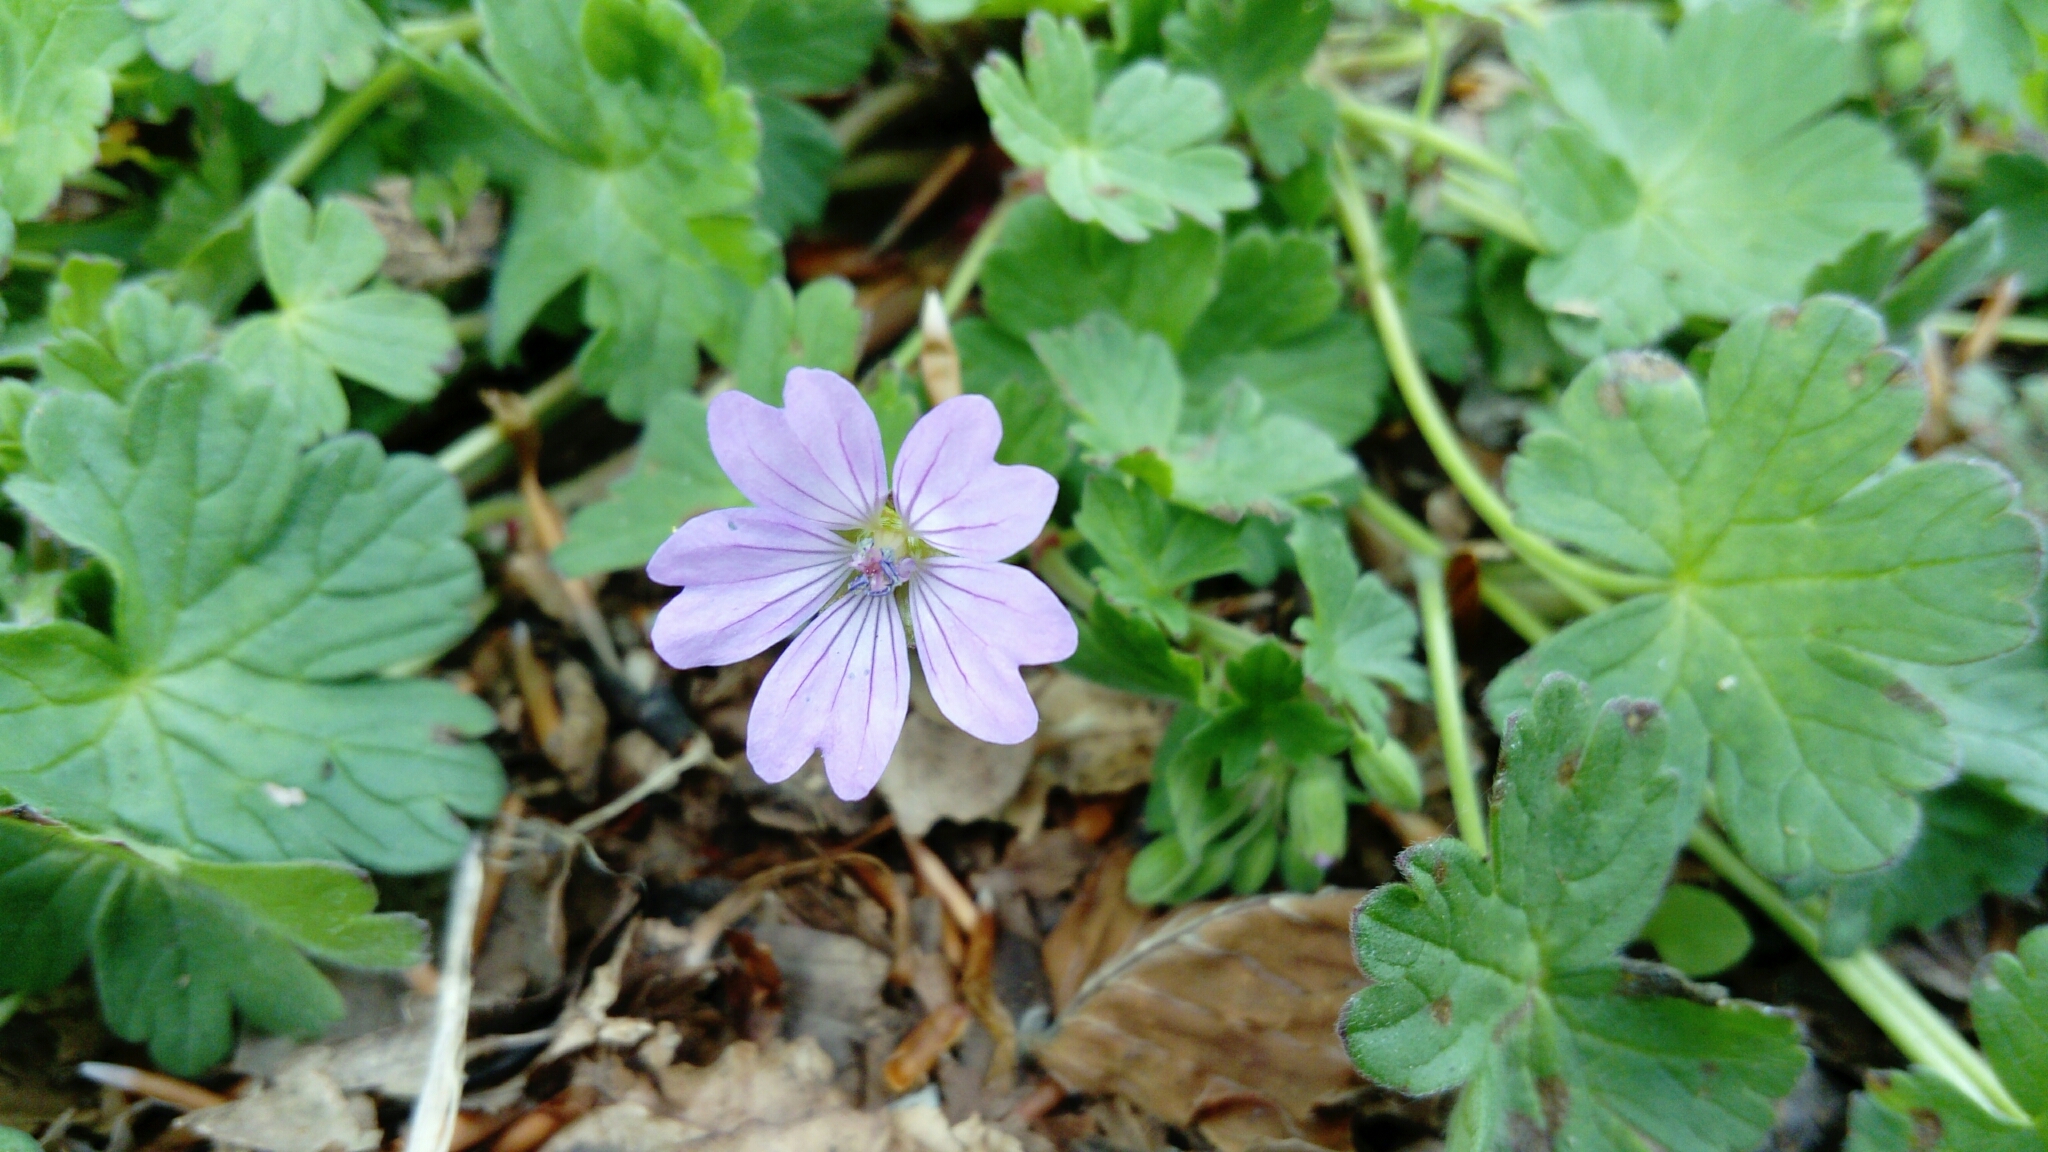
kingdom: Plantae
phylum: Tracheophyta
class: Magnoliopsida
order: Geraniales
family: Geraniaceae
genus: Geranium
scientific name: Geranium pyrenaicum
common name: Hedgerow crane's-bill
